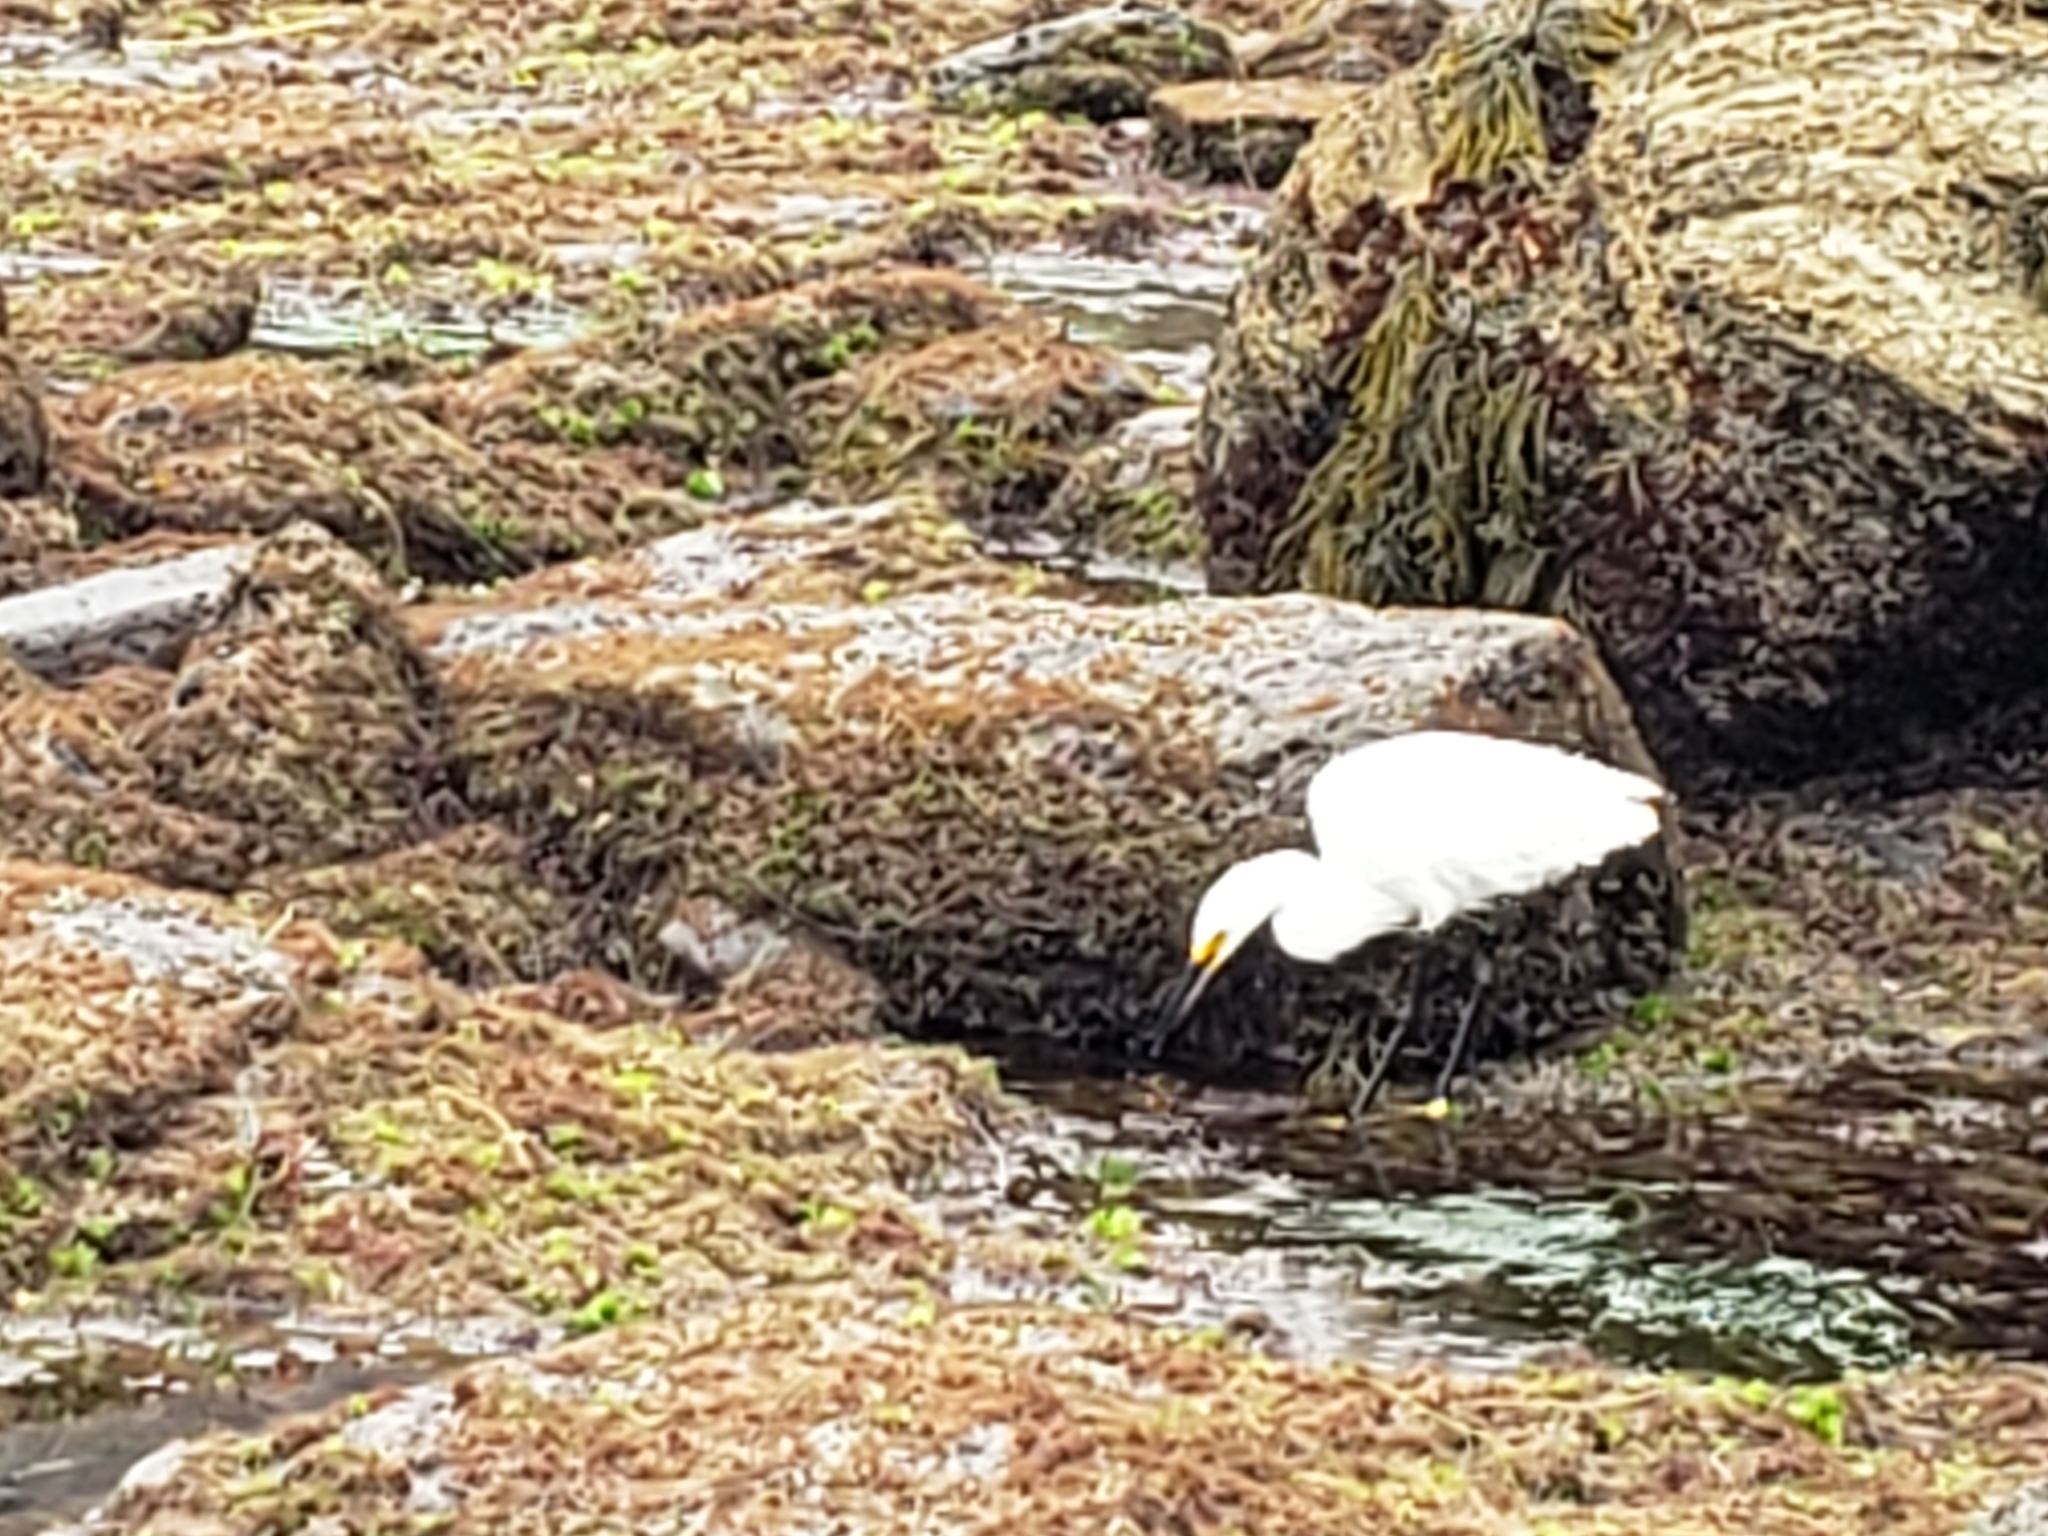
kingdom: Animalia
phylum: Chordata
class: Aves
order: Pelecaniformes
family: Ardeidae
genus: Egretta
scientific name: Egretta thula
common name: Snowy egret
